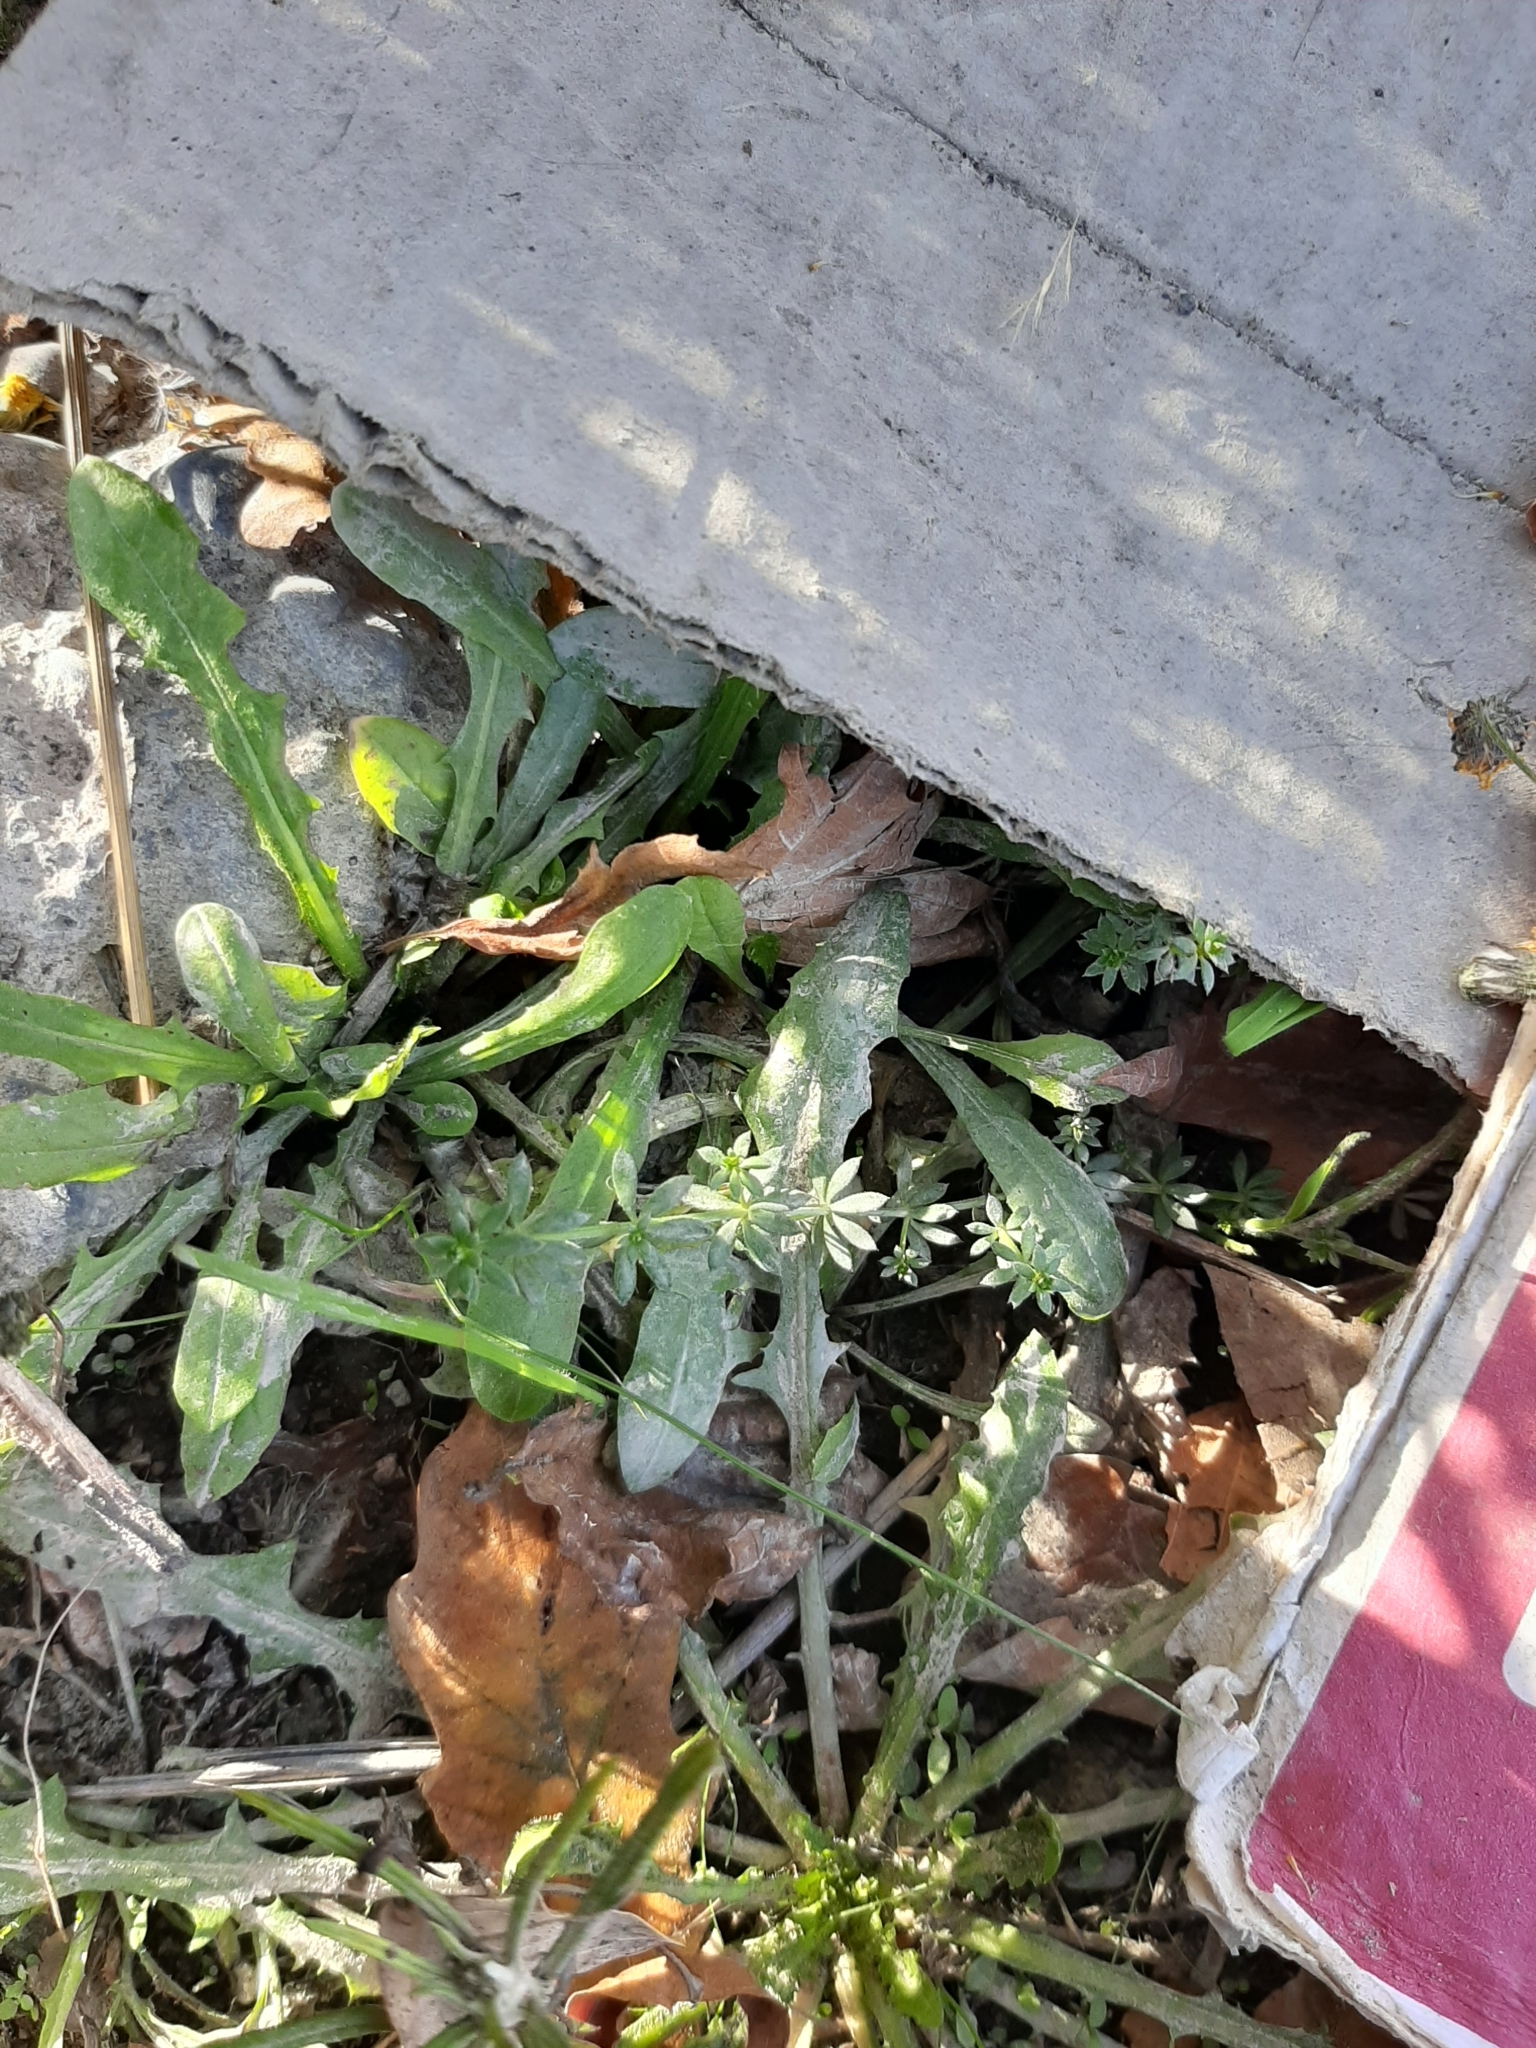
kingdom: Plantae
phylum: Tracheophyta
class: Magnoliopsida
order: Gentianales
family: Rubiaceae
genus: Galium
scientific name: Galium aparine
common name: Cleavers
